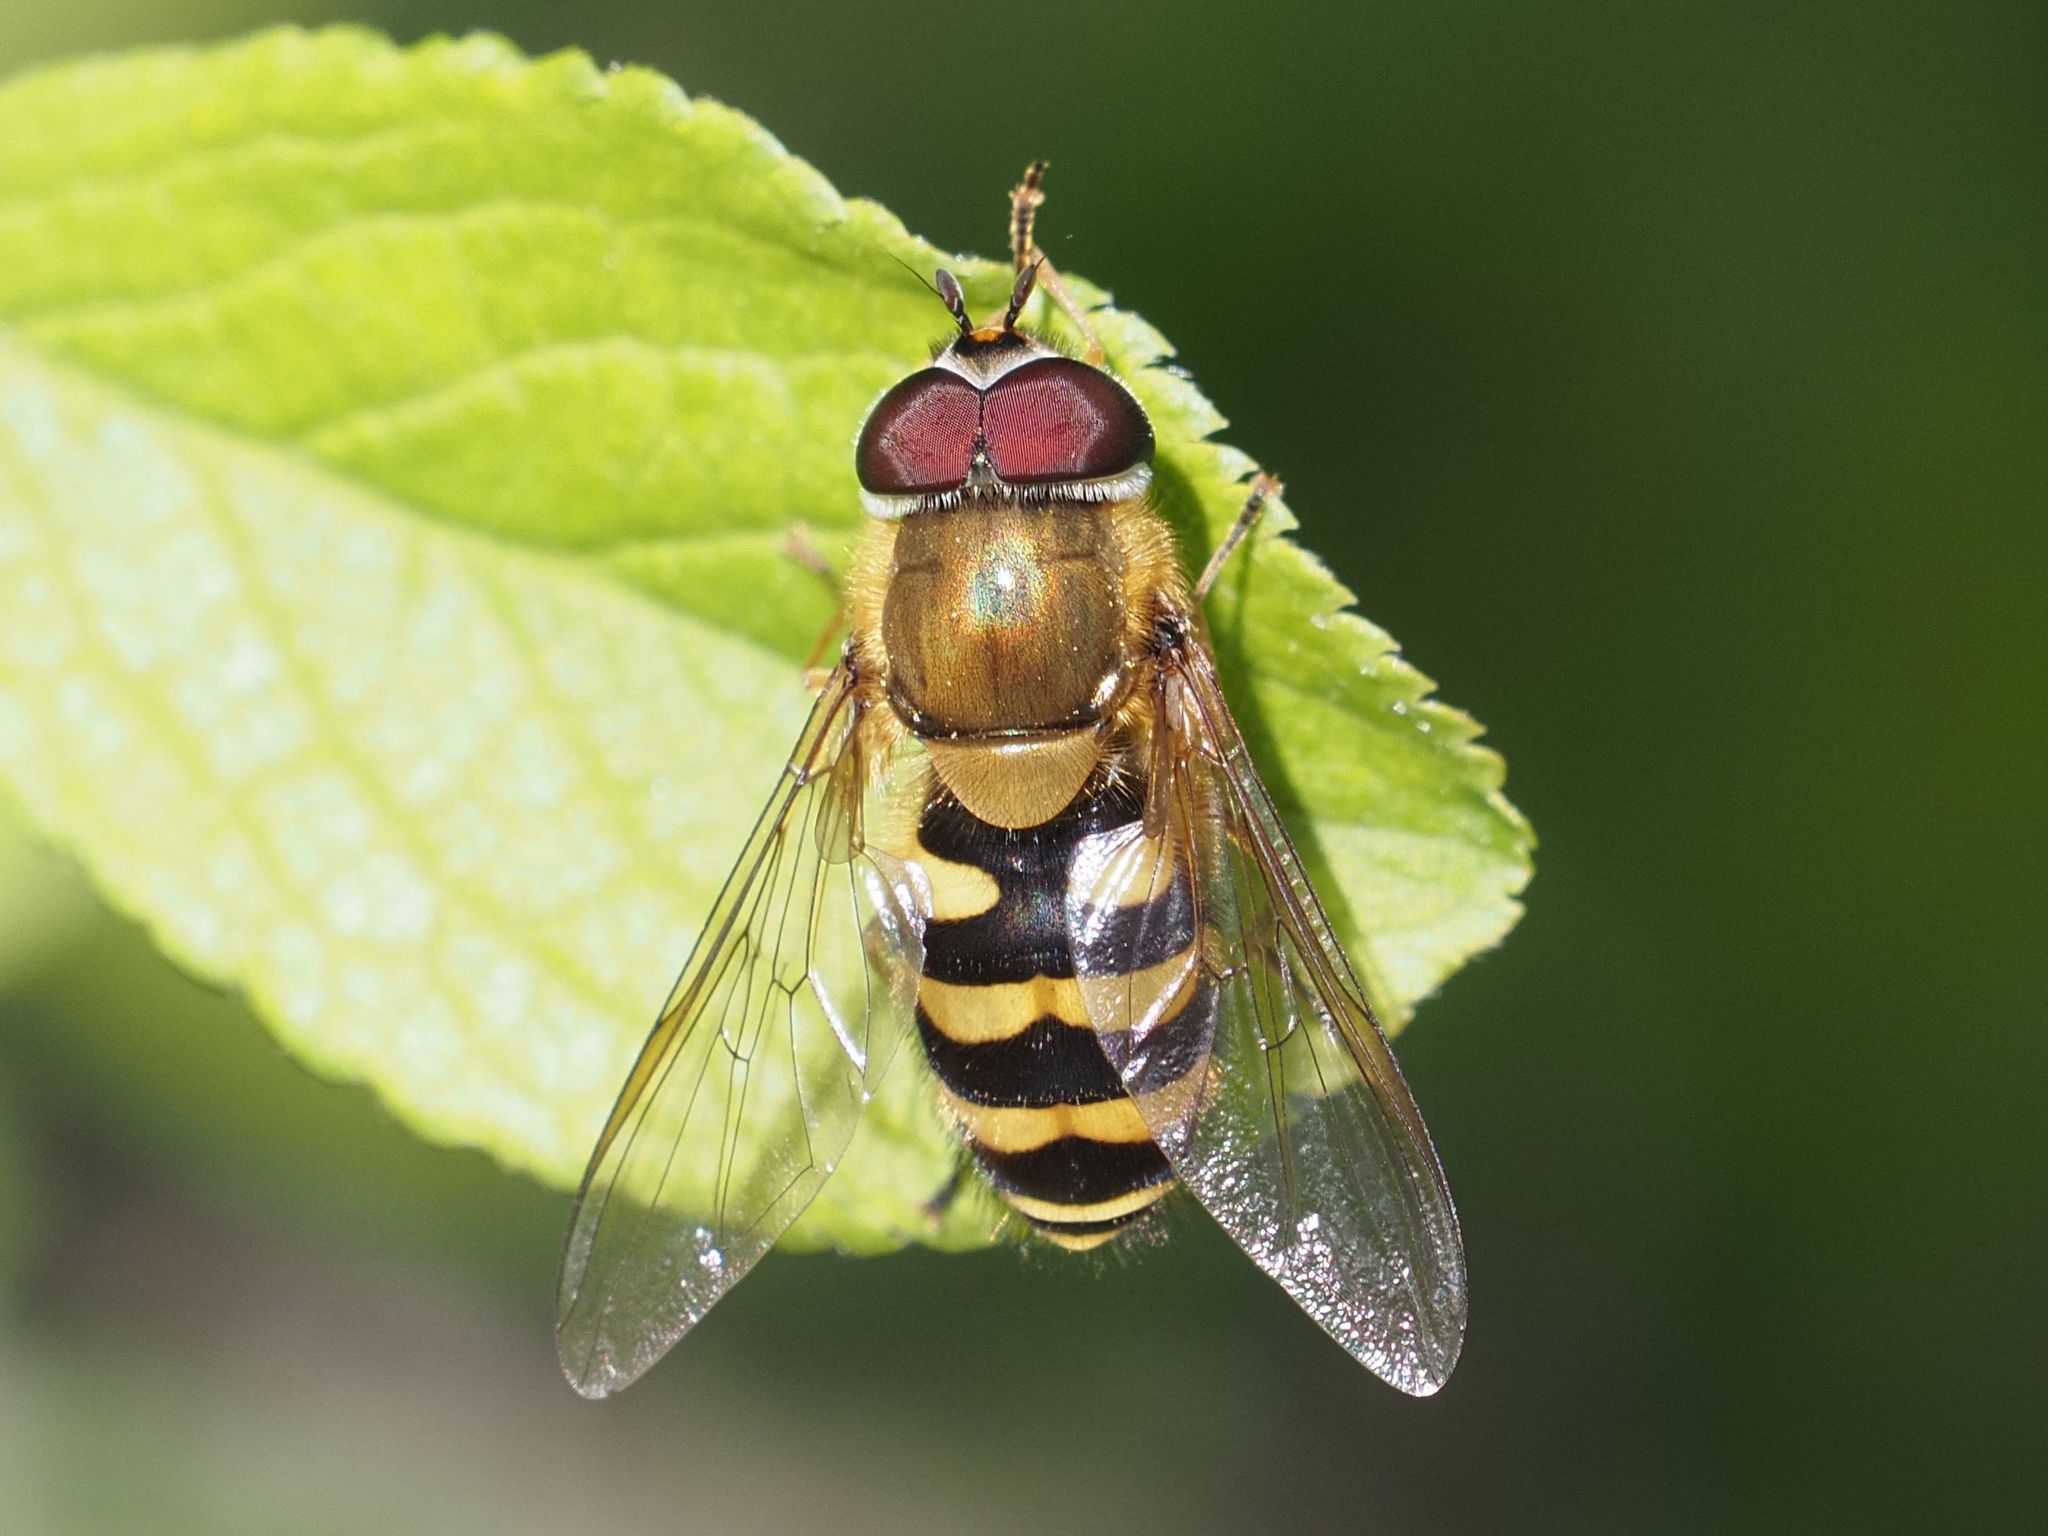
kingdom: Animalia
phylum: Arthropoda
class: Insecta
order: Diptera
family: Syrphidae
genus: Syrphus
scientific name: Syrphus torvus
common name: Hairy-eyed flower fly
